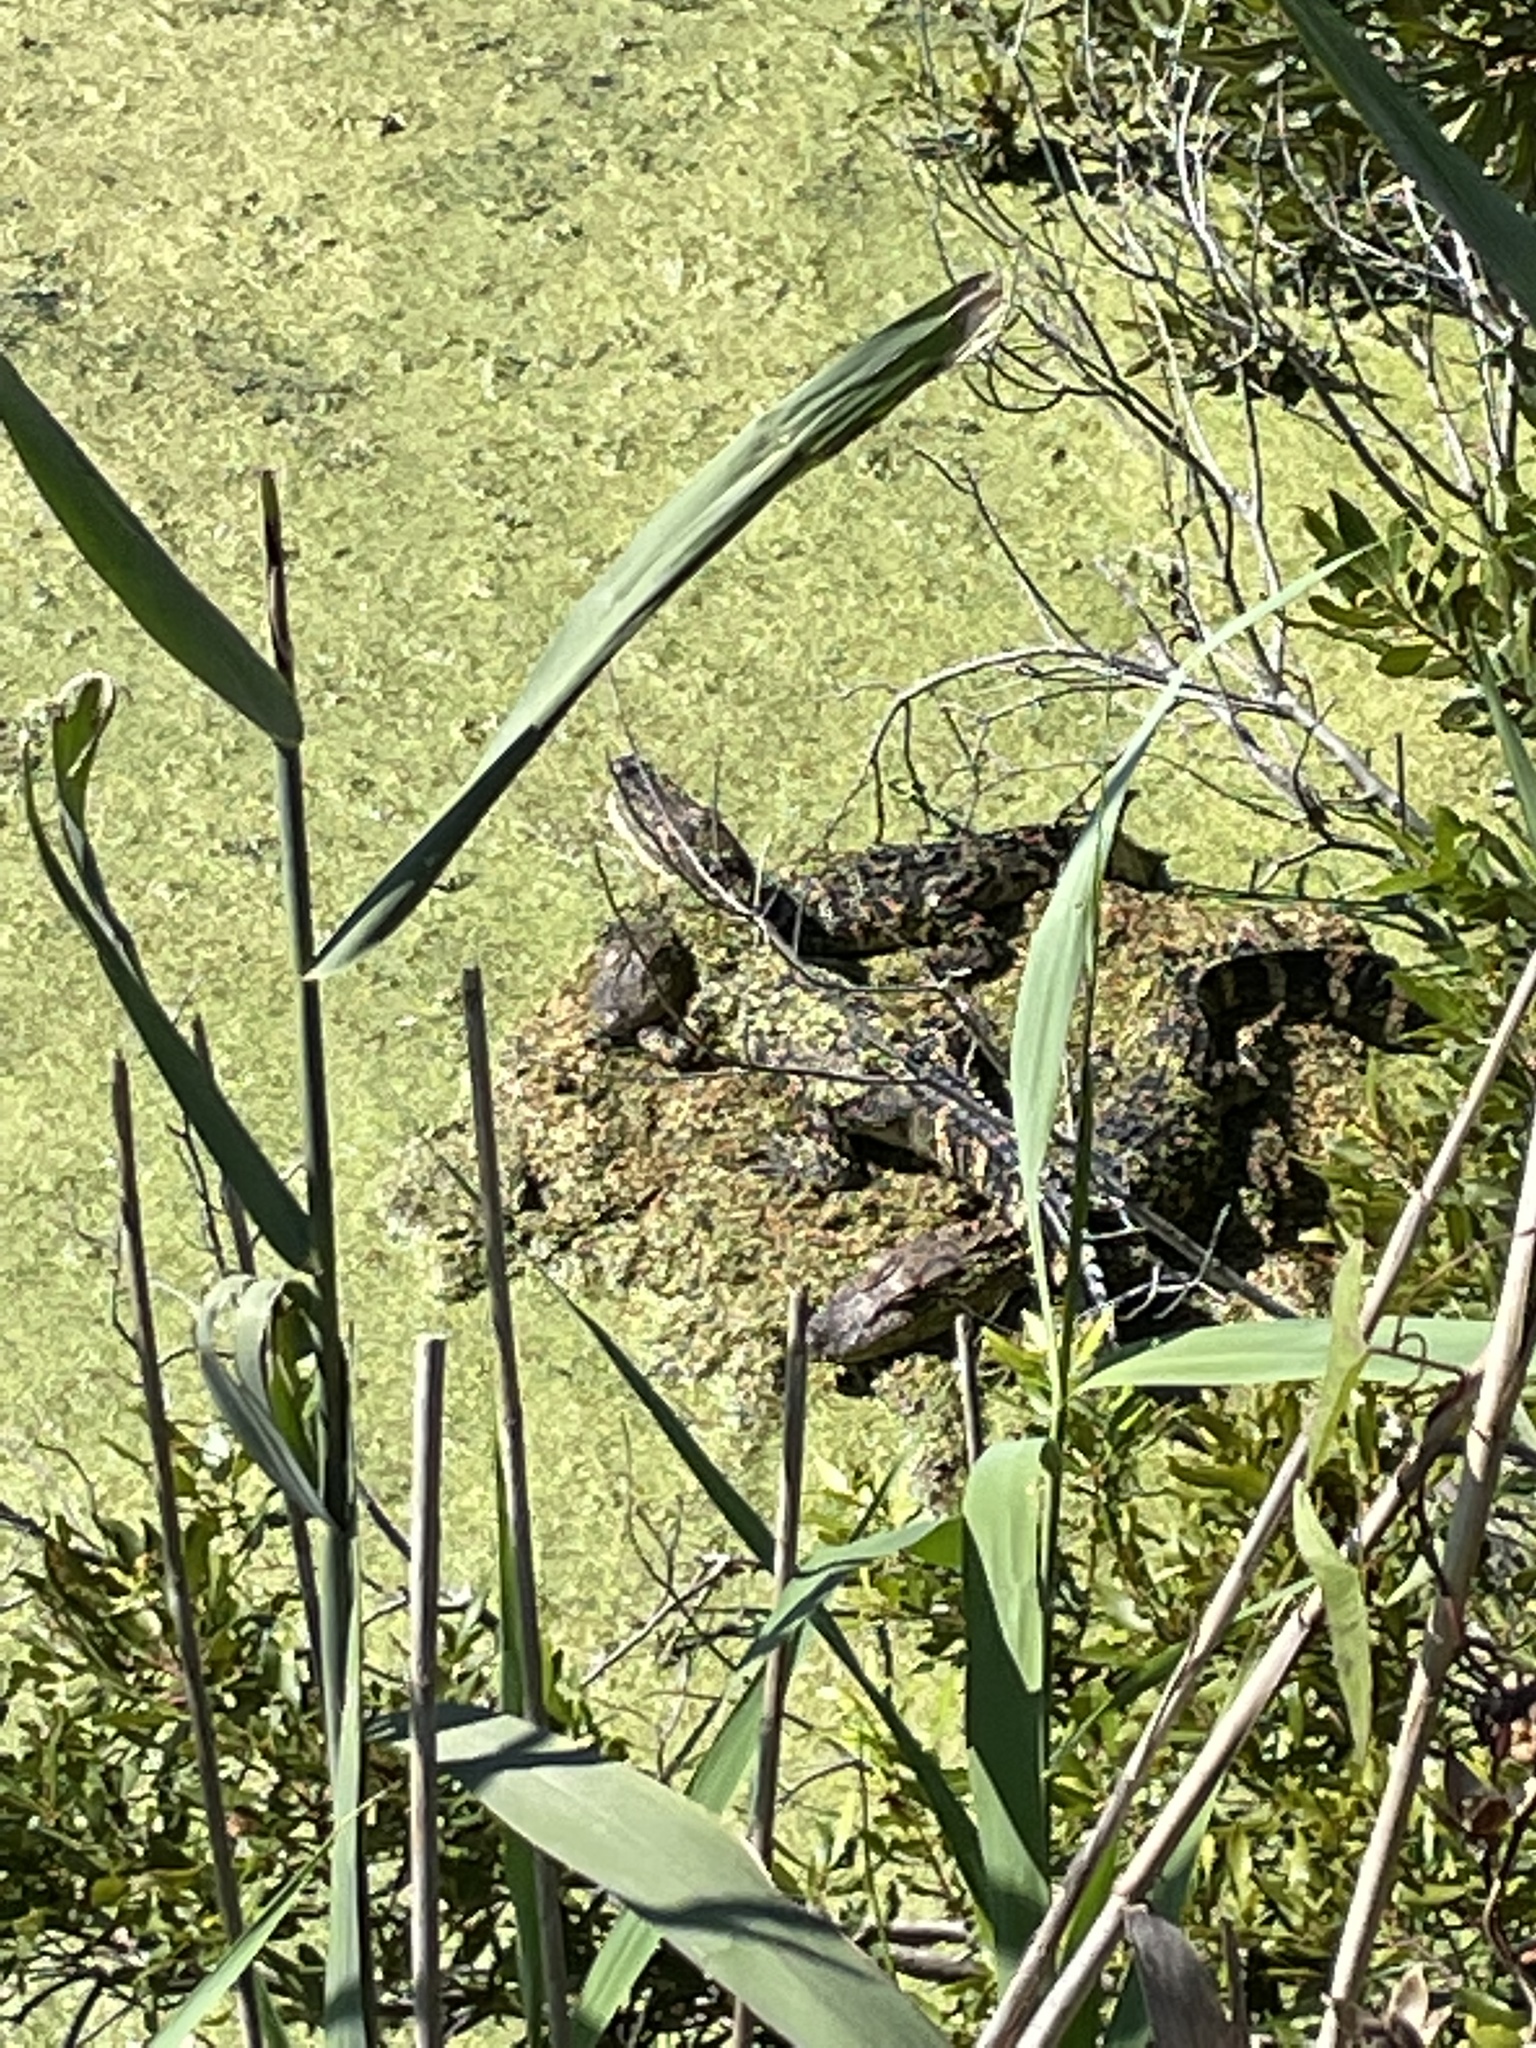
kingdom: Animalia
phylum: Chordata
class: Crocodylia
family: Alligatoridae
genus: Alligator
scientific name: Alligator mississippiensis
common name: American alligator
